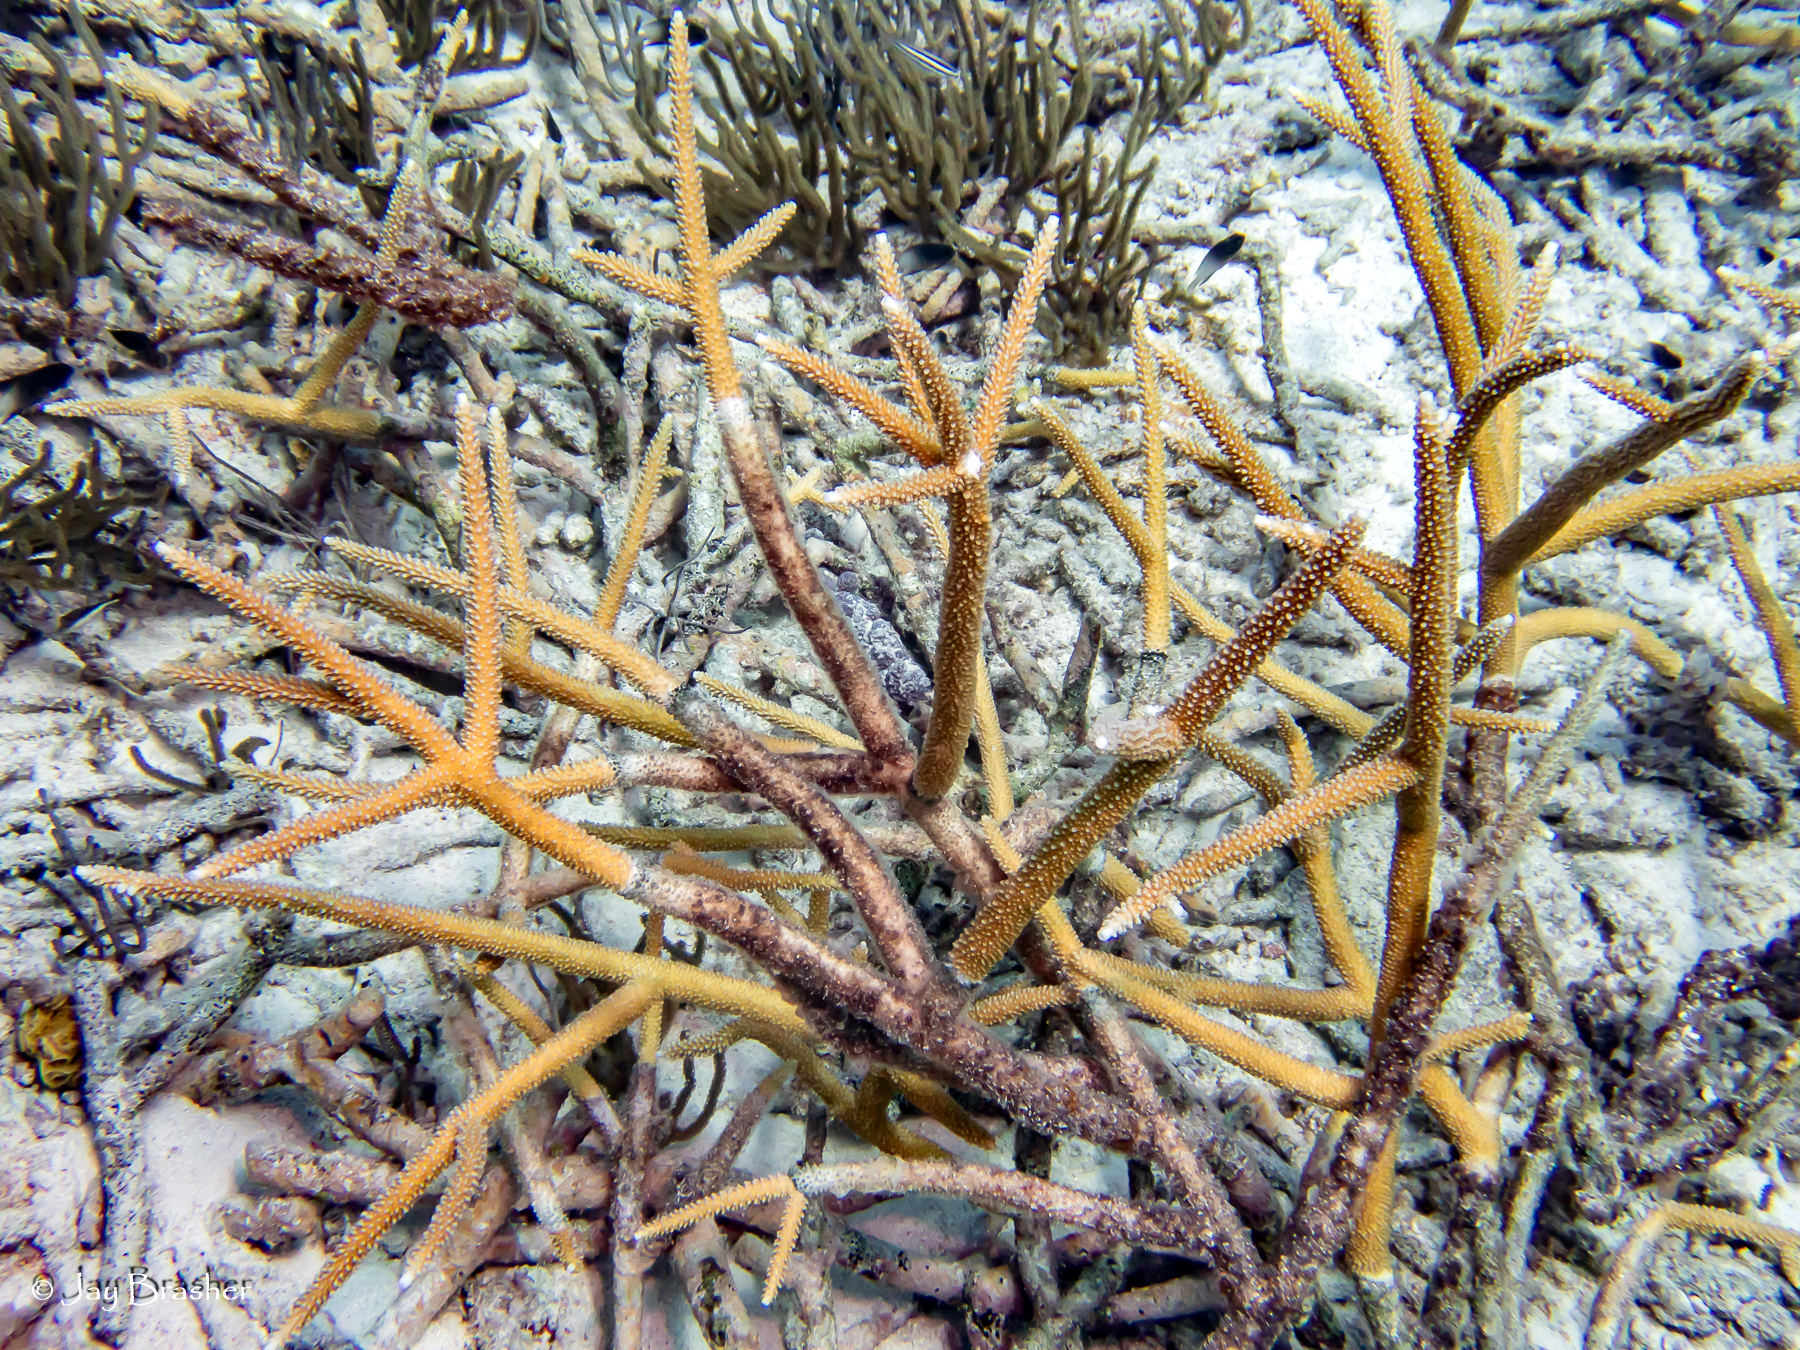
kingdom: Animalia
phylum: Cnidaria
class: Anthozoa
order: Scleractinia
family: Acroporidae
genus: Acropora
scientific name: Acropora cervicornis
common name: Staghorn coral
